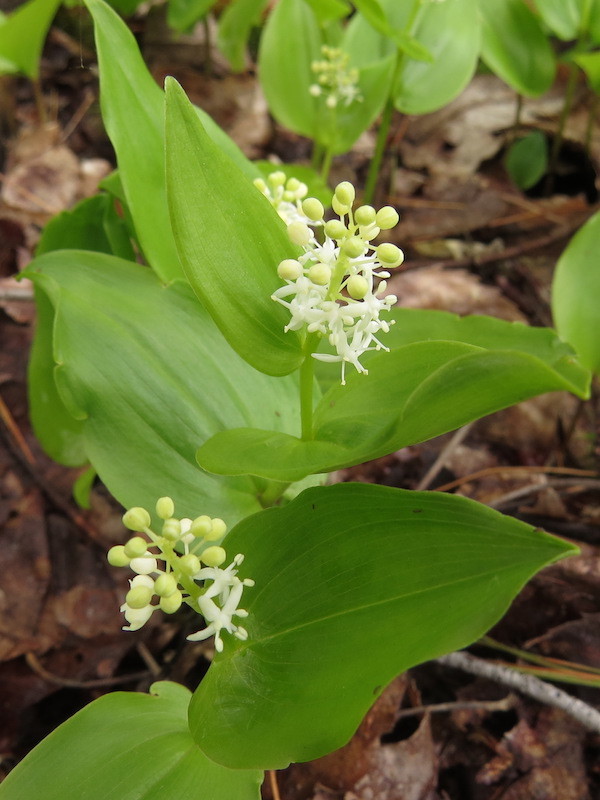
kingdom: Plantae
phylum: Tracheophyta
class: Liliopsida
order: Asparagales
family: Asparagaceae
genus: Maianthemum
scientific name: Maianthemum canadense
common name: False lily-of-the-valley
